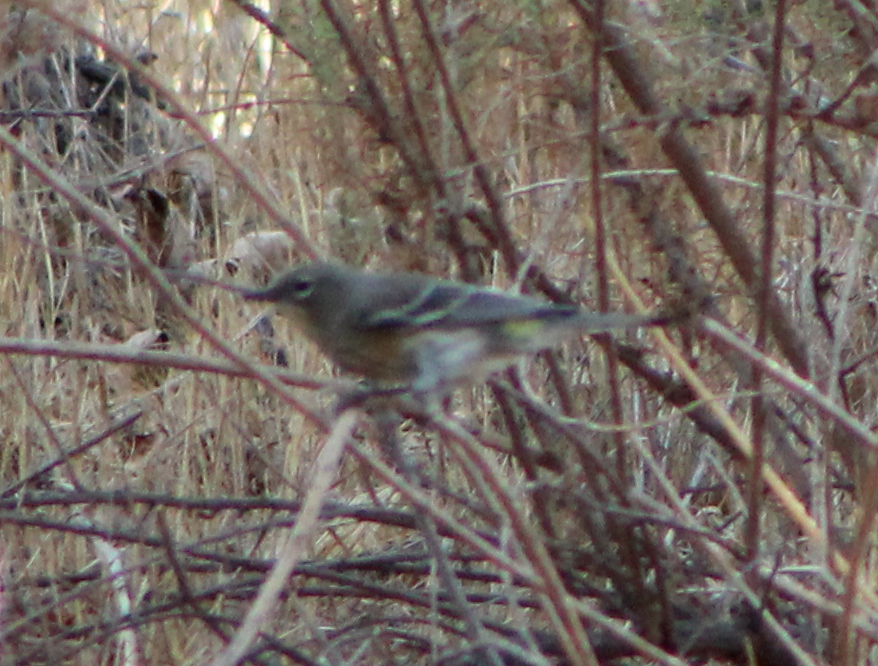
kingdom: Animalia
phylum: Chordata
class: Aves
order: Passeriformes
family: Parulidae
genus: Setophaga
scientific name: Setophaga coronata
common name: Myrtle warbler
